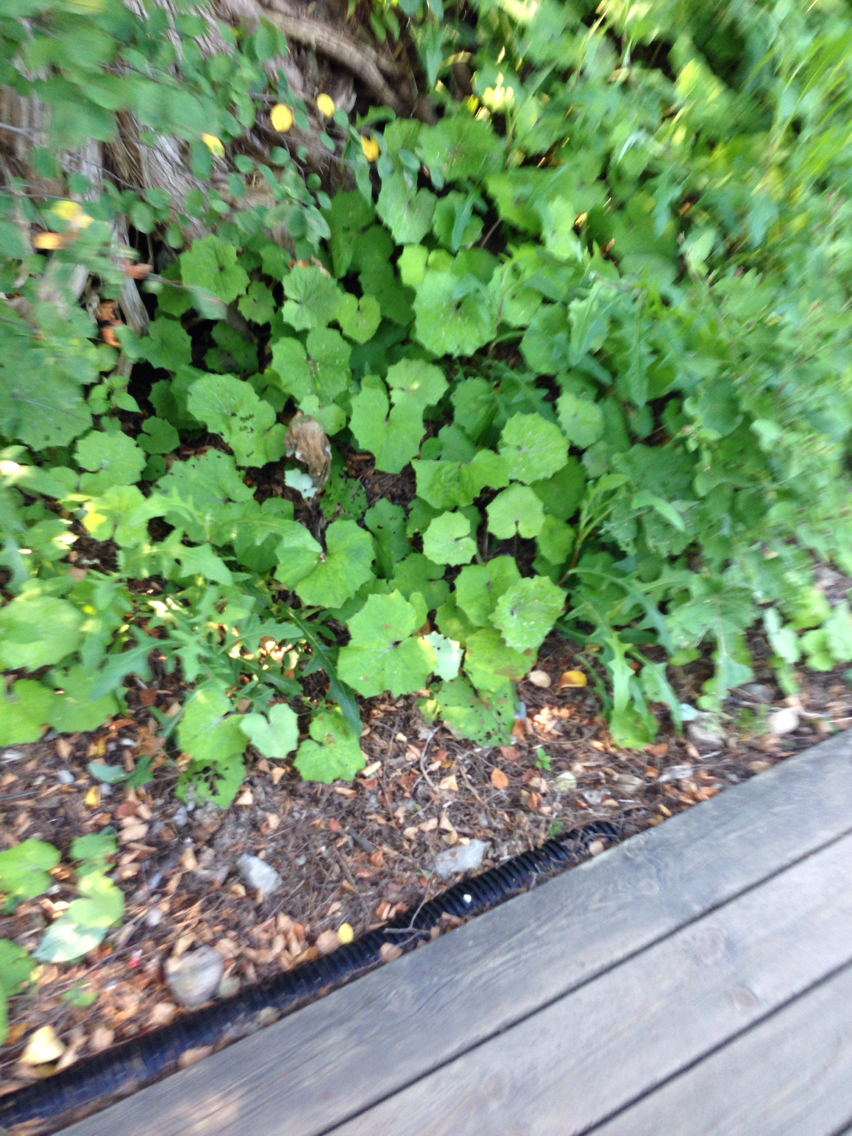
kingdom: Plantae
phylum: Tracheophyta
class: Magnoliopsida
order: Asterales
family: Asteraceae
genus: Tussilago
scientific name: Tussilago farfara
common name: Coltsfoot
